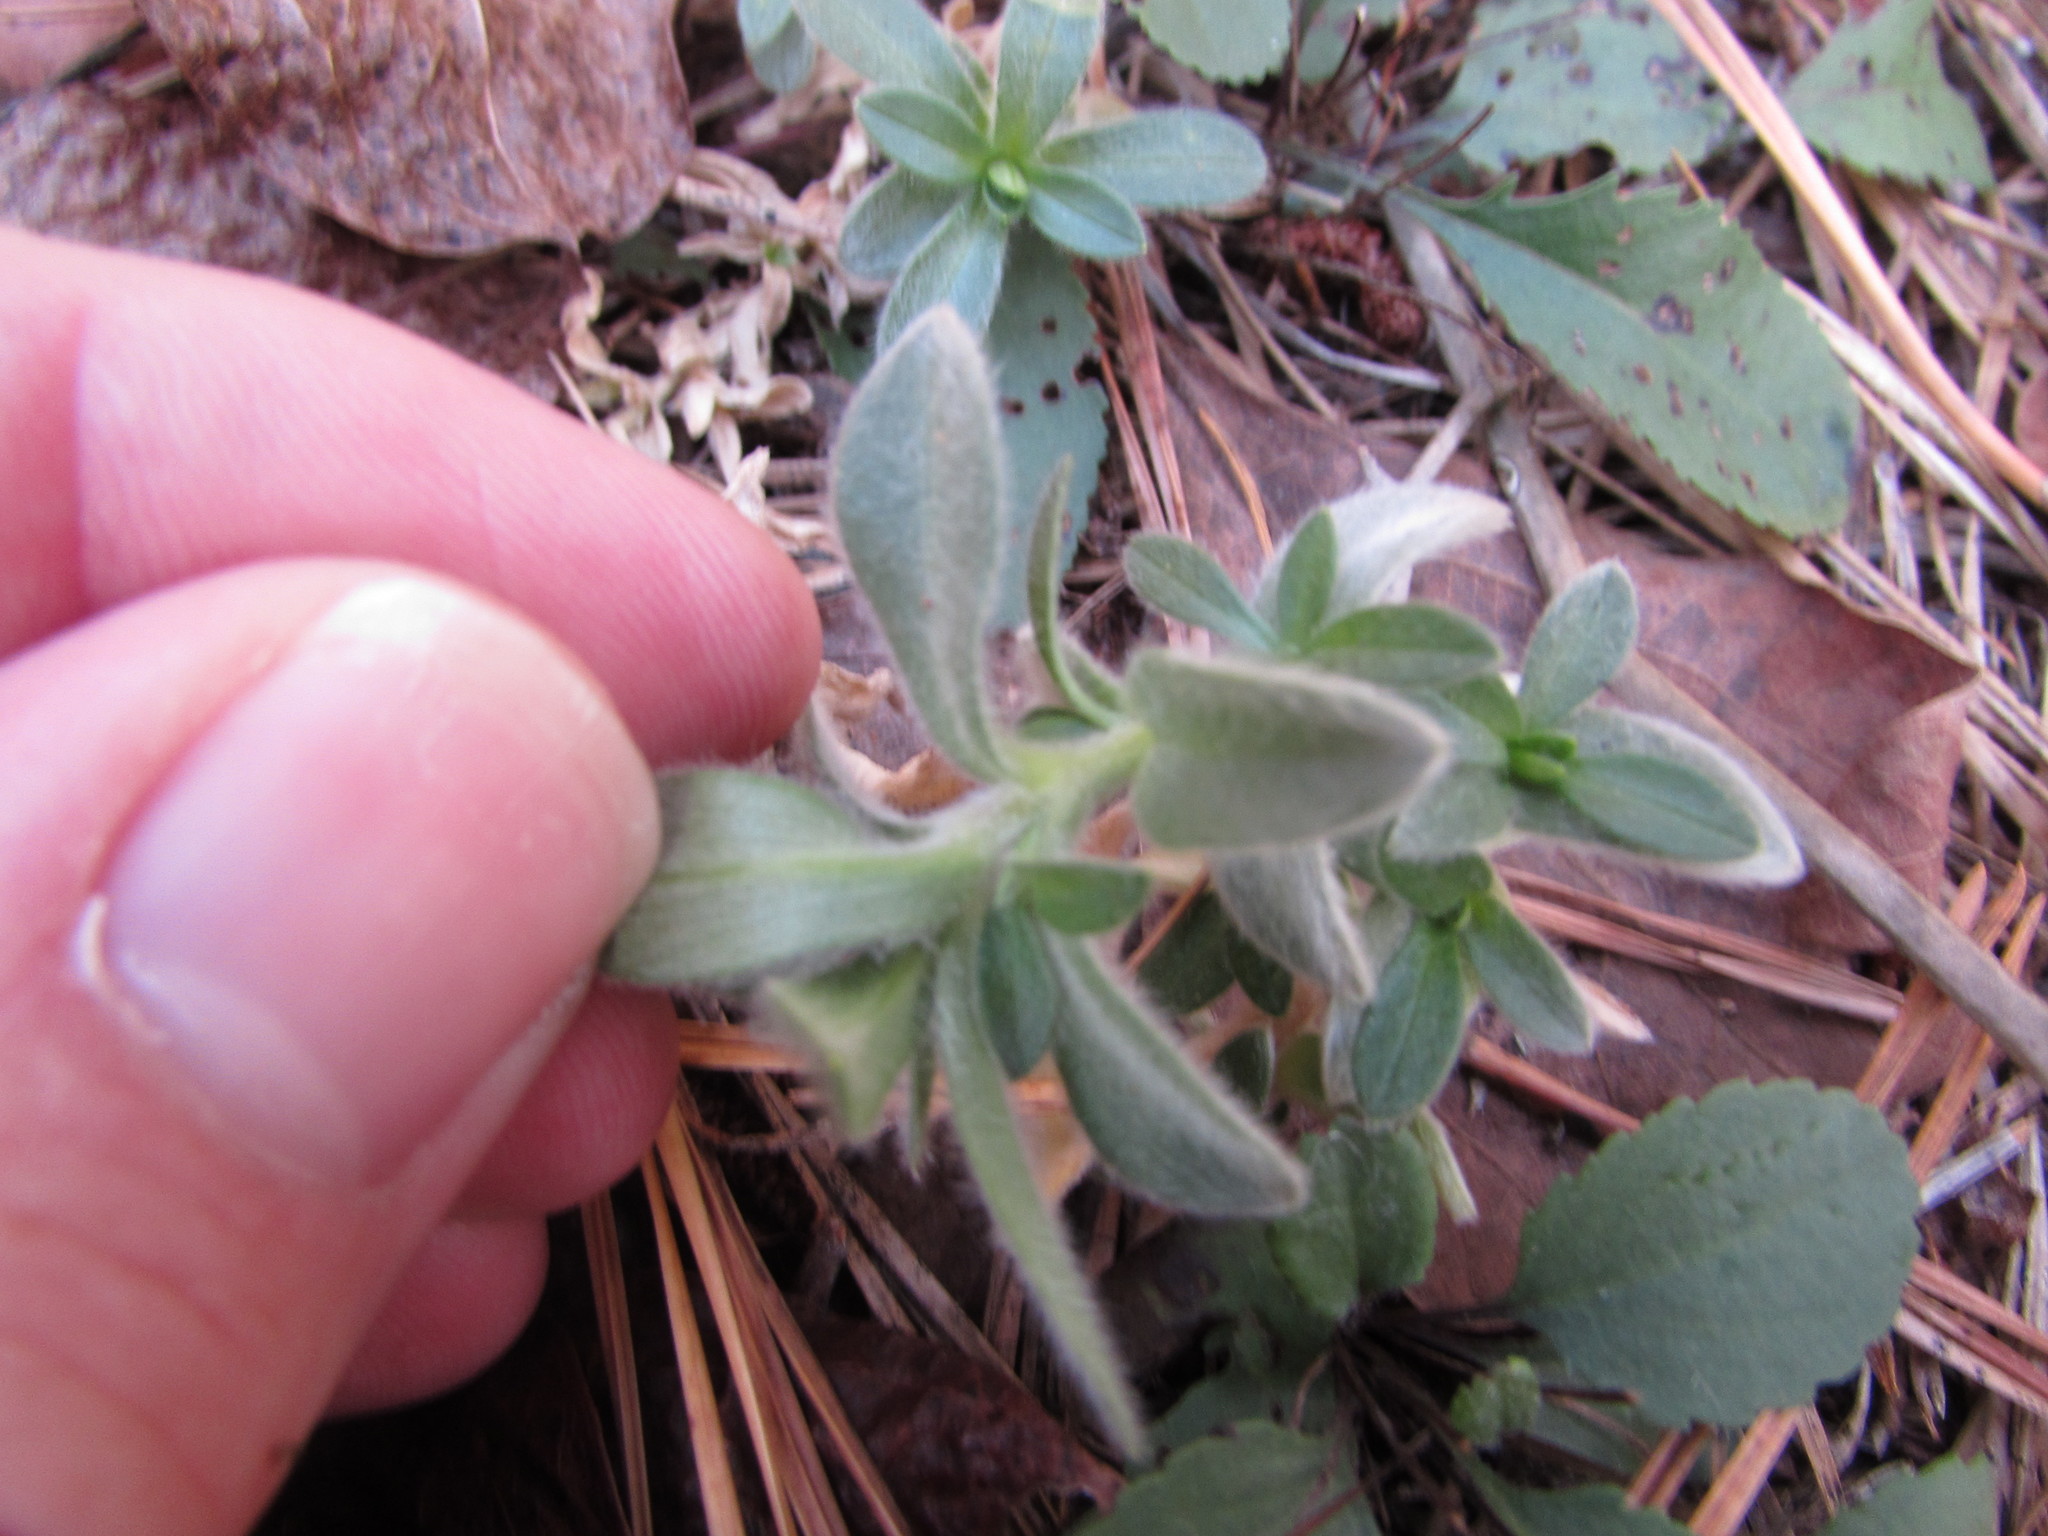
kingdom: Plantae
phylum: Tracheophyta
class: Magnoliopsida
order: Caryophyllales
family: Caryophyllaceae
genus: Cerastium
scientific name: Cerastium velutinum
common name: Barren chickweed
